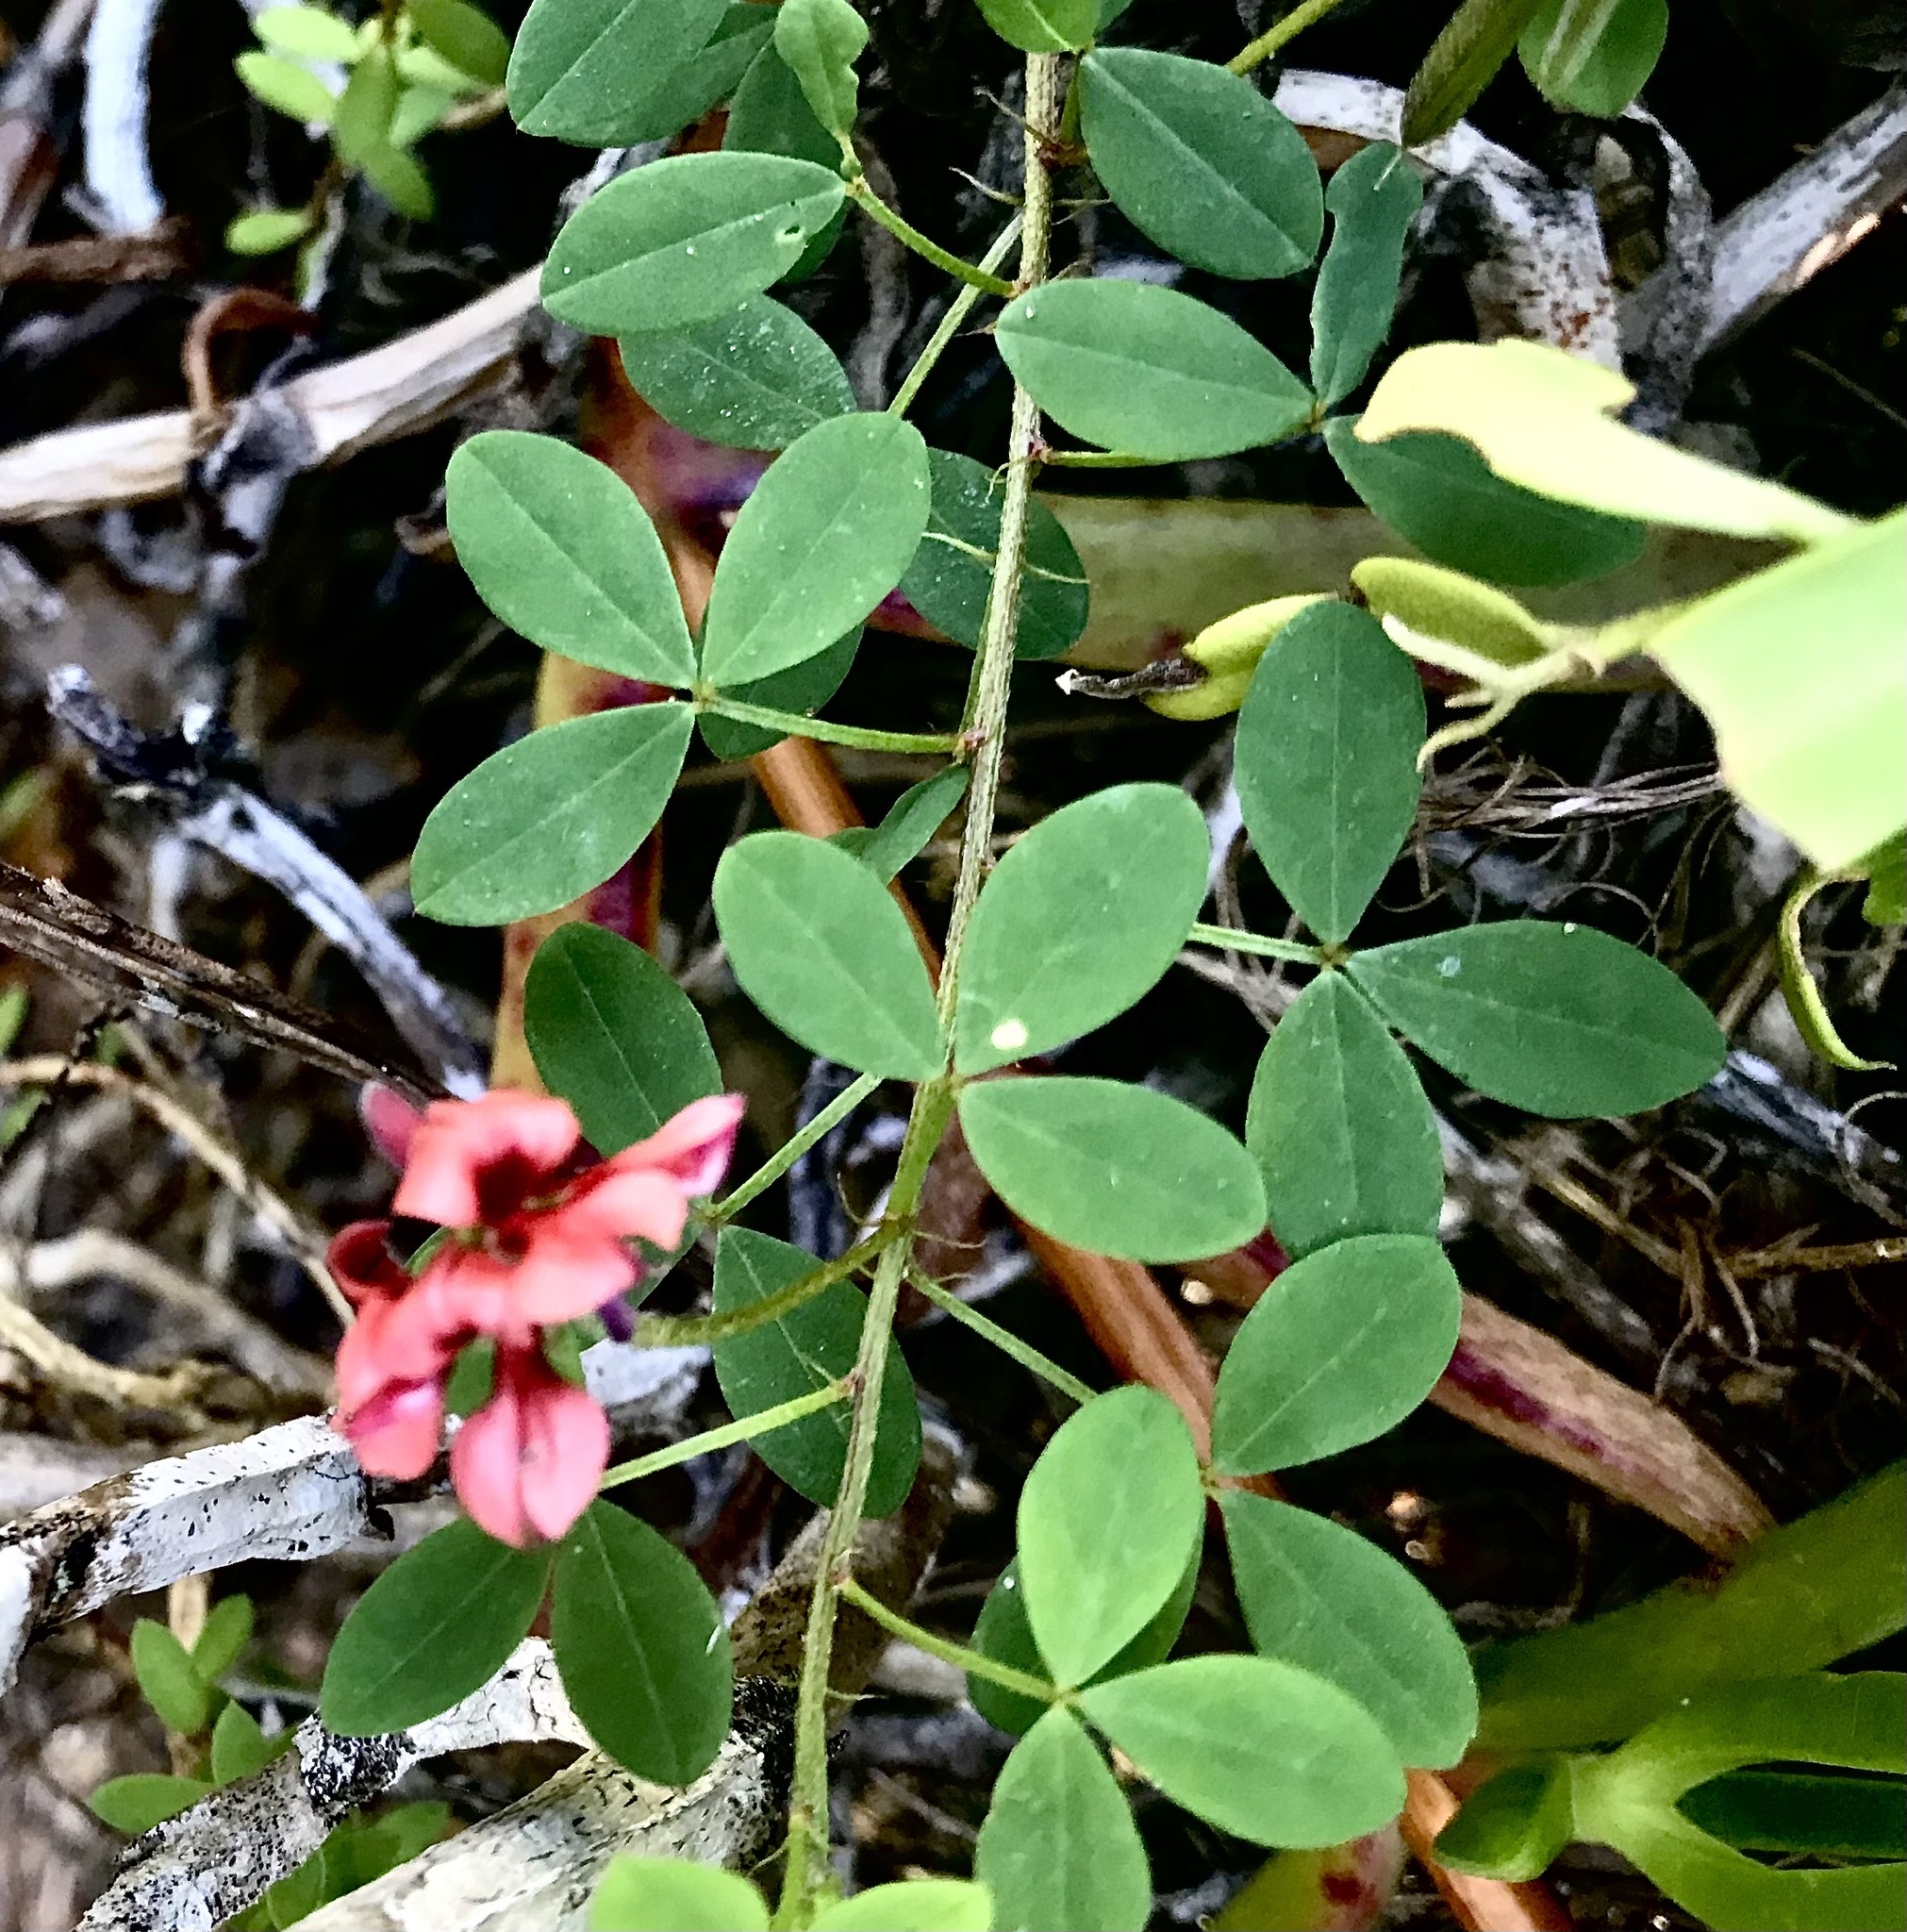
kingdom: Plantae
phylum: Tracheophyta
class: Magnoliopsida
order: Fabales
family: Fabaceae
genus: Indigofera
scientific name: Indigofera erecta
